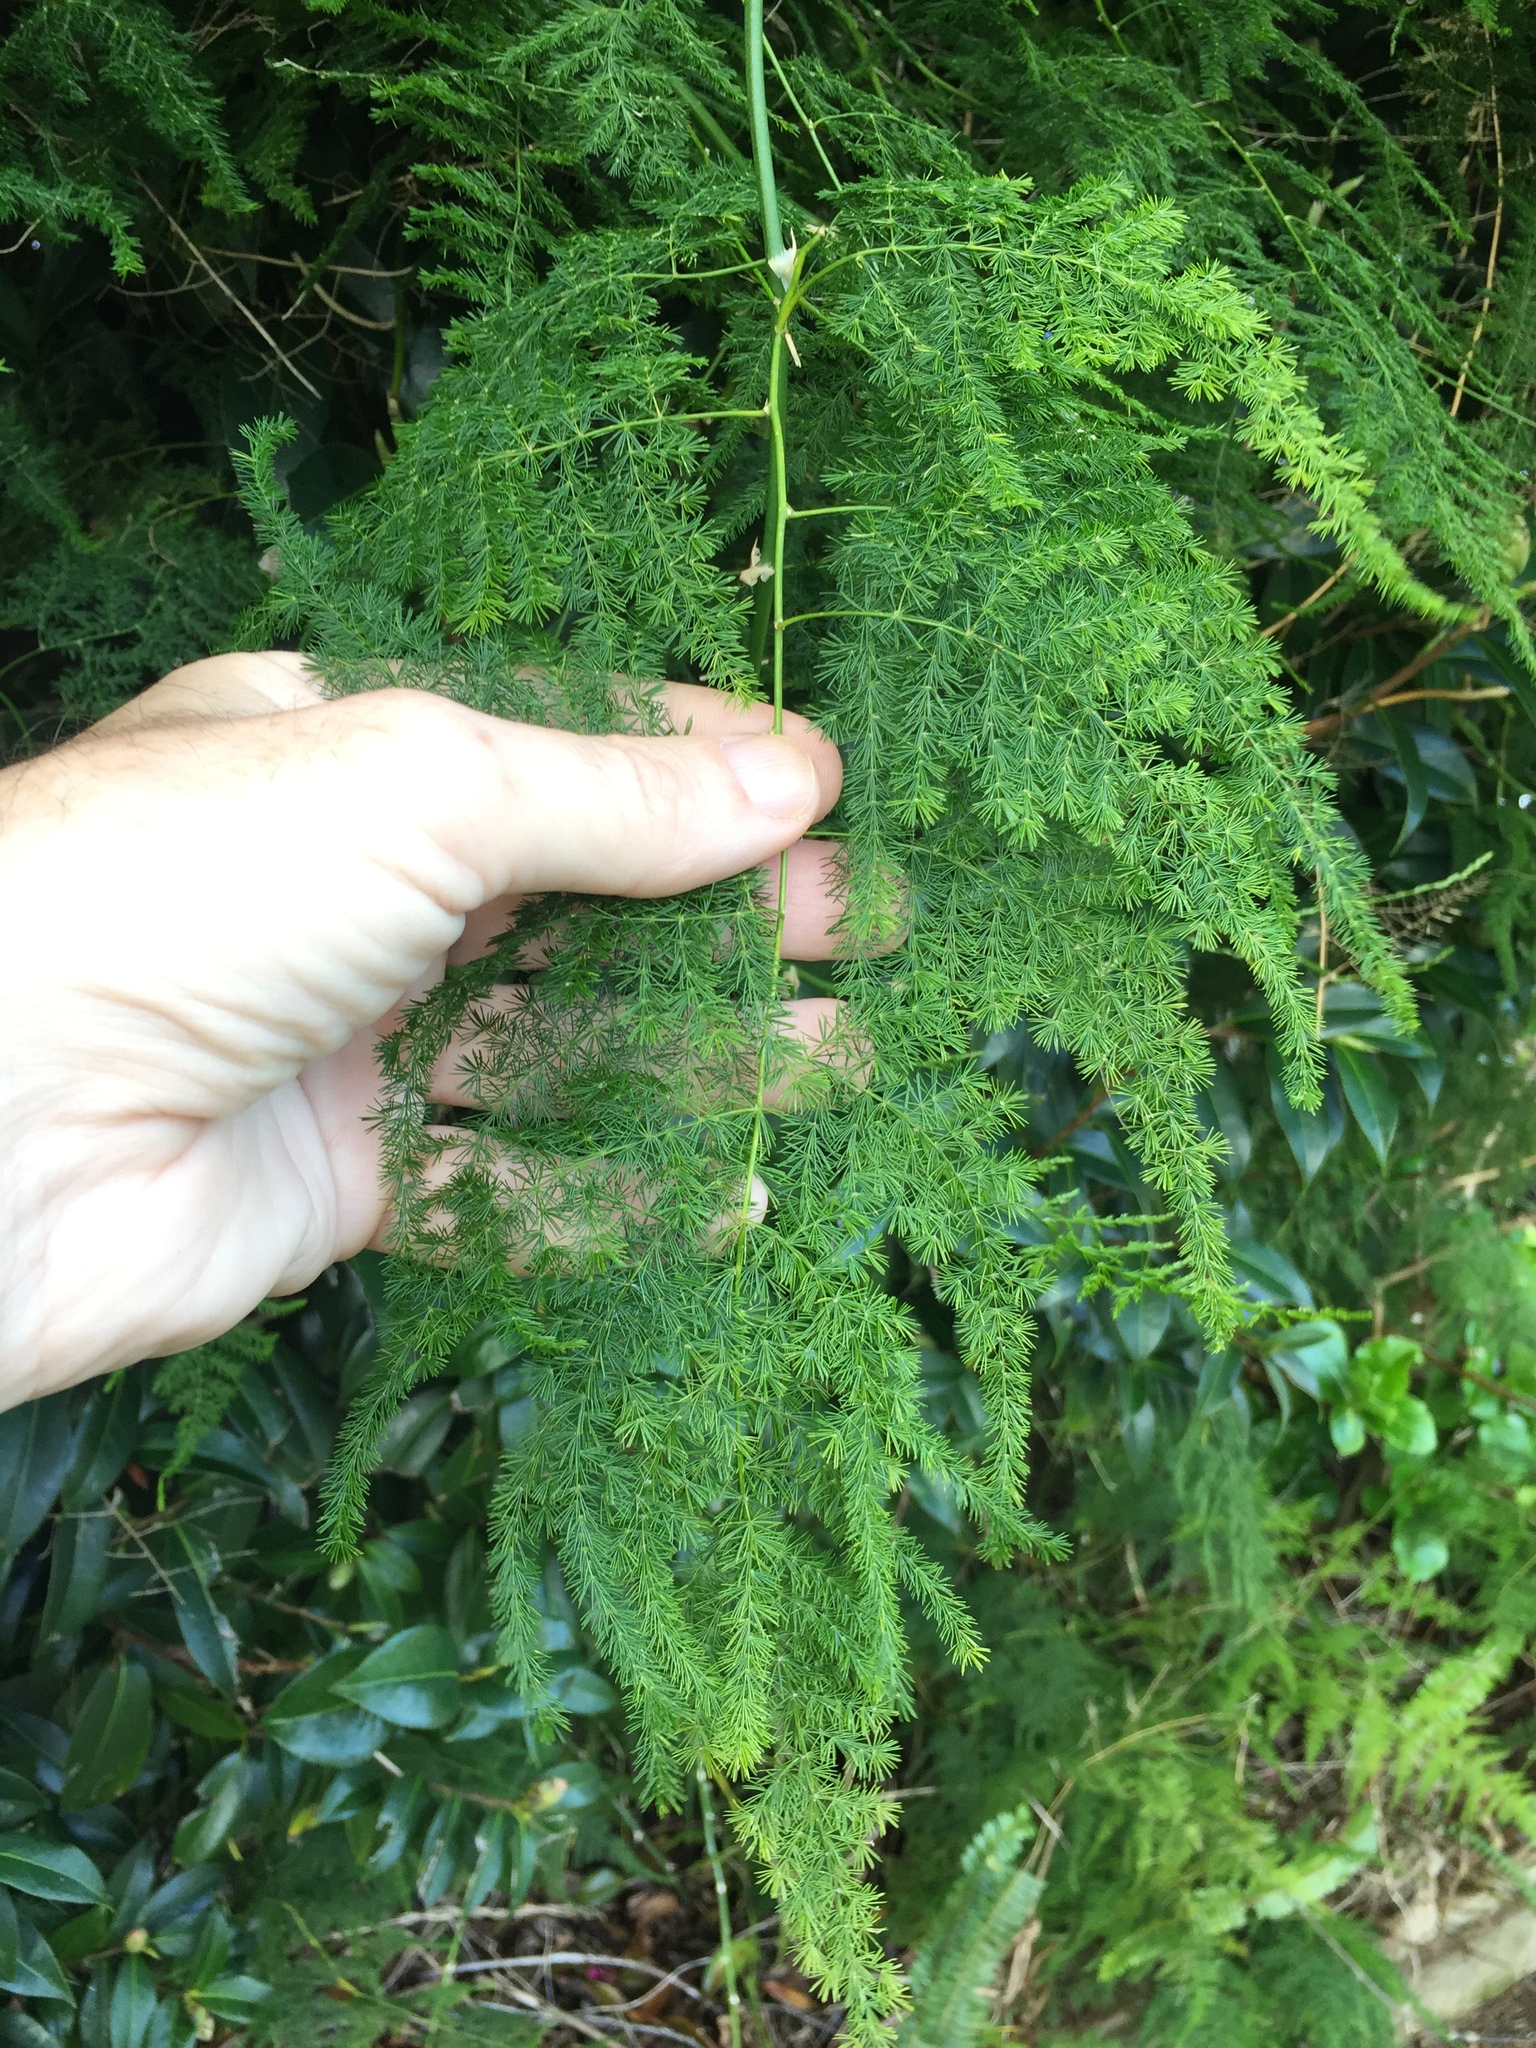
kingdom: Plantae
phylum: Tracheophyta
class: Liliopsida
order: Asparagales
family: Asparagaceae
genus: Asparagus
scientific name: Asparagus setaceus
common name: Common asparagus fern
